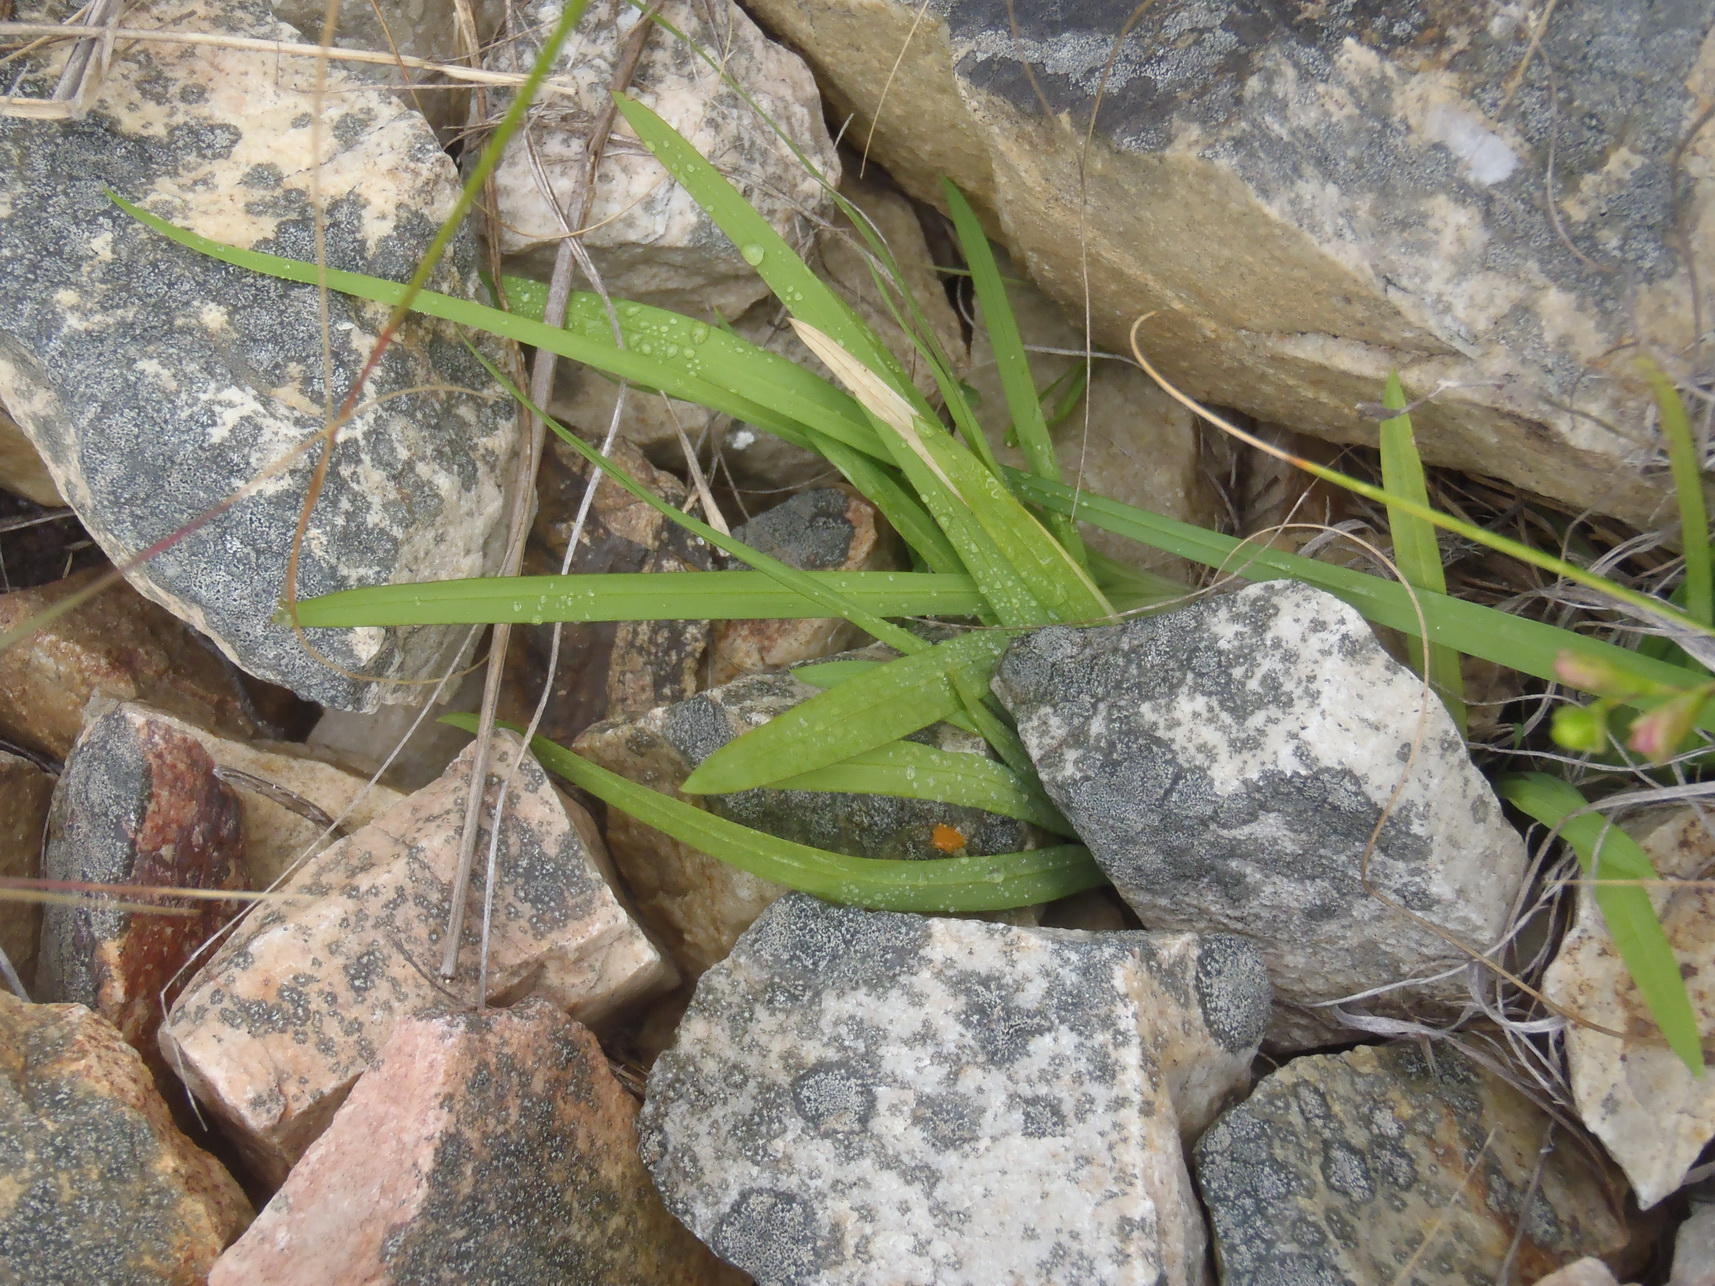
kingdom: Plantae
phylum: Tracheophyta
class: Liliopsida
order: Asparagales
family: Iridaceae
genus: Freesia
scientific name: Freesia leichtlinii
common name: Freesia
